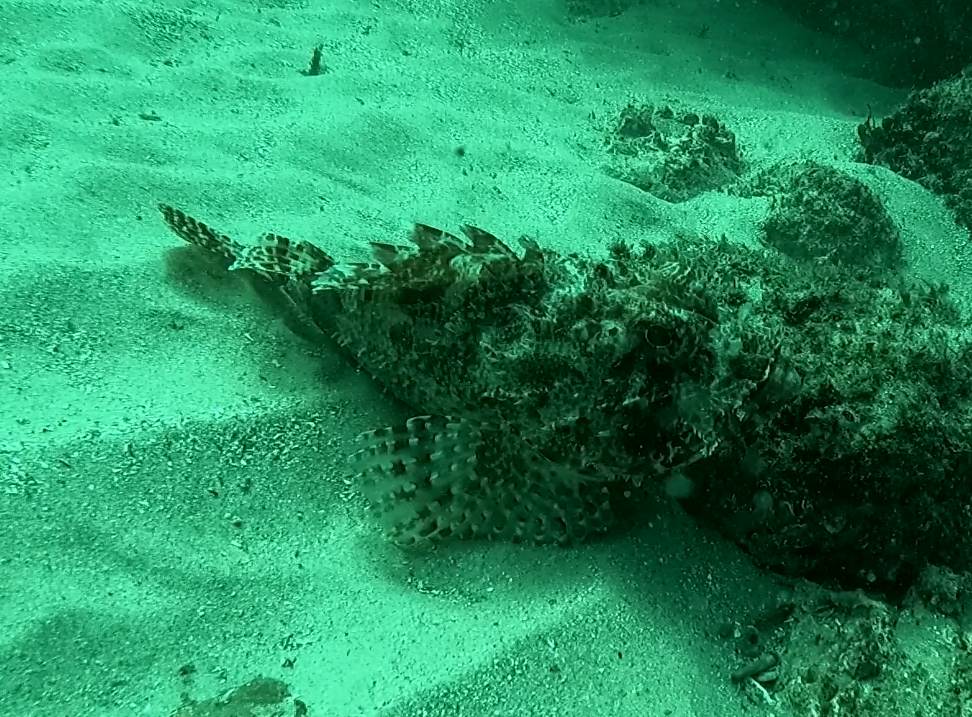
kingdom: Animalia
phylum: Chordata
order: Scorpaeniformes
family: Scorpaenidae
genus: Scorpaena
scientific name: Scorpaena jacksoniensis
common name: Eastern red scorpionfish
